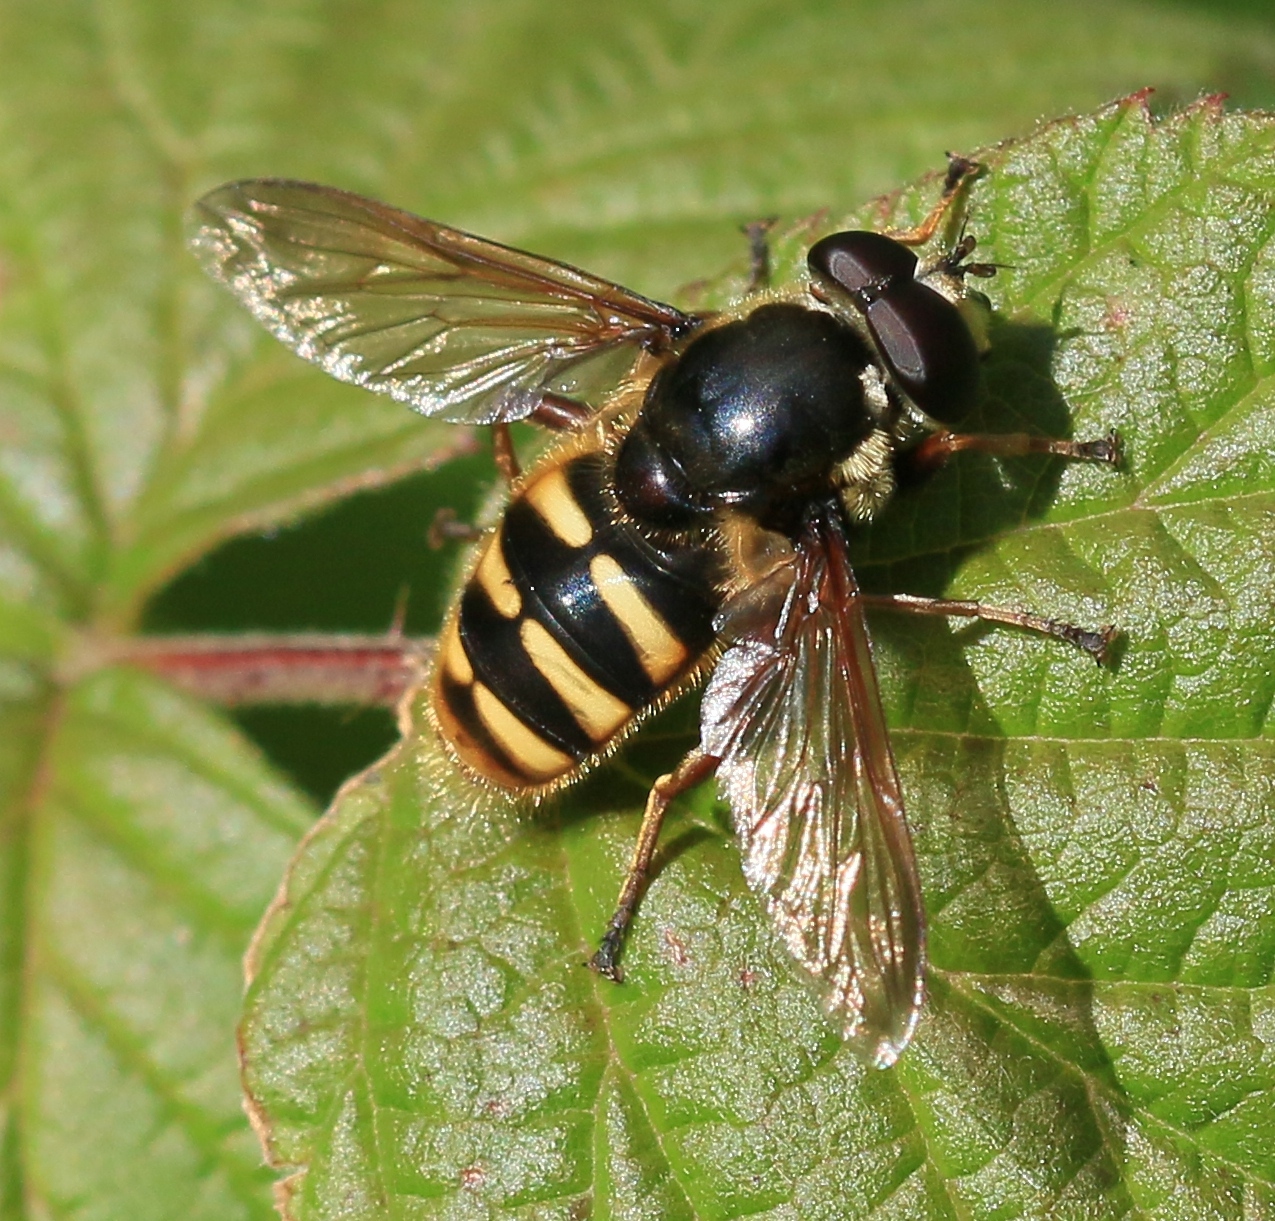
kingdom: Animalia
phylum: Arthropoda
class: Insecta
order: Diptera
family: Syrphidae
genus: Sericomyia
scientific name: Sericomyia silentis
